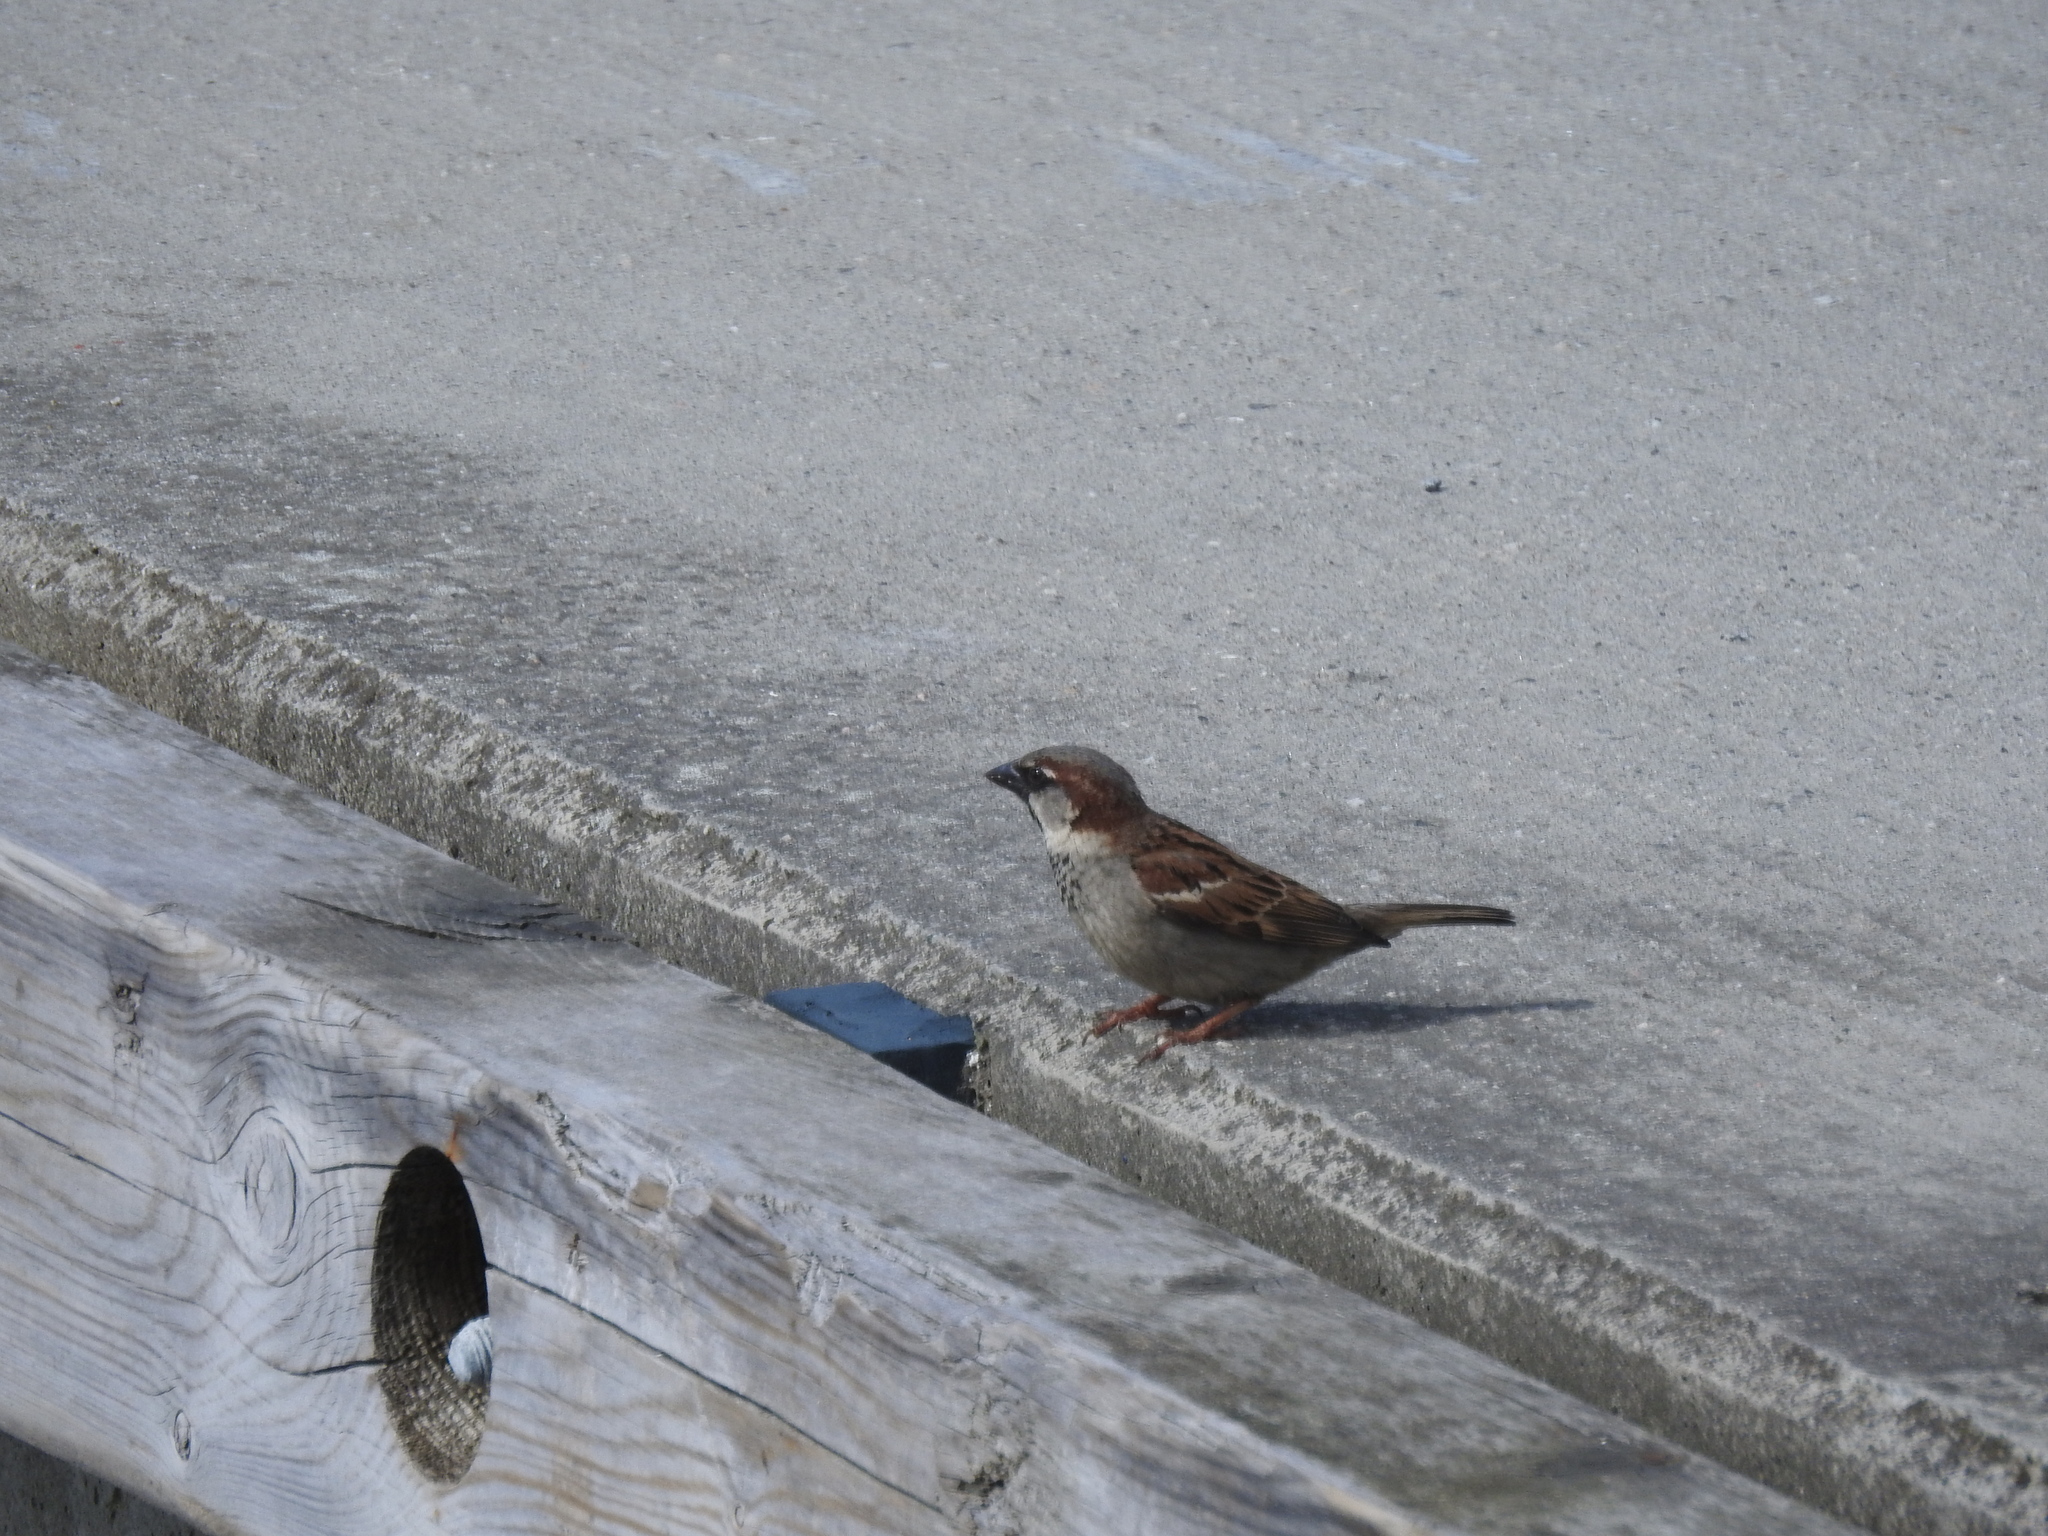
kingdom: Animalia
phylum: Chordata
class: Aves
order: Passeriformes
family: Passeridae
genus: Passer
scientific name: Passer domesticus
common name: House sparrow
